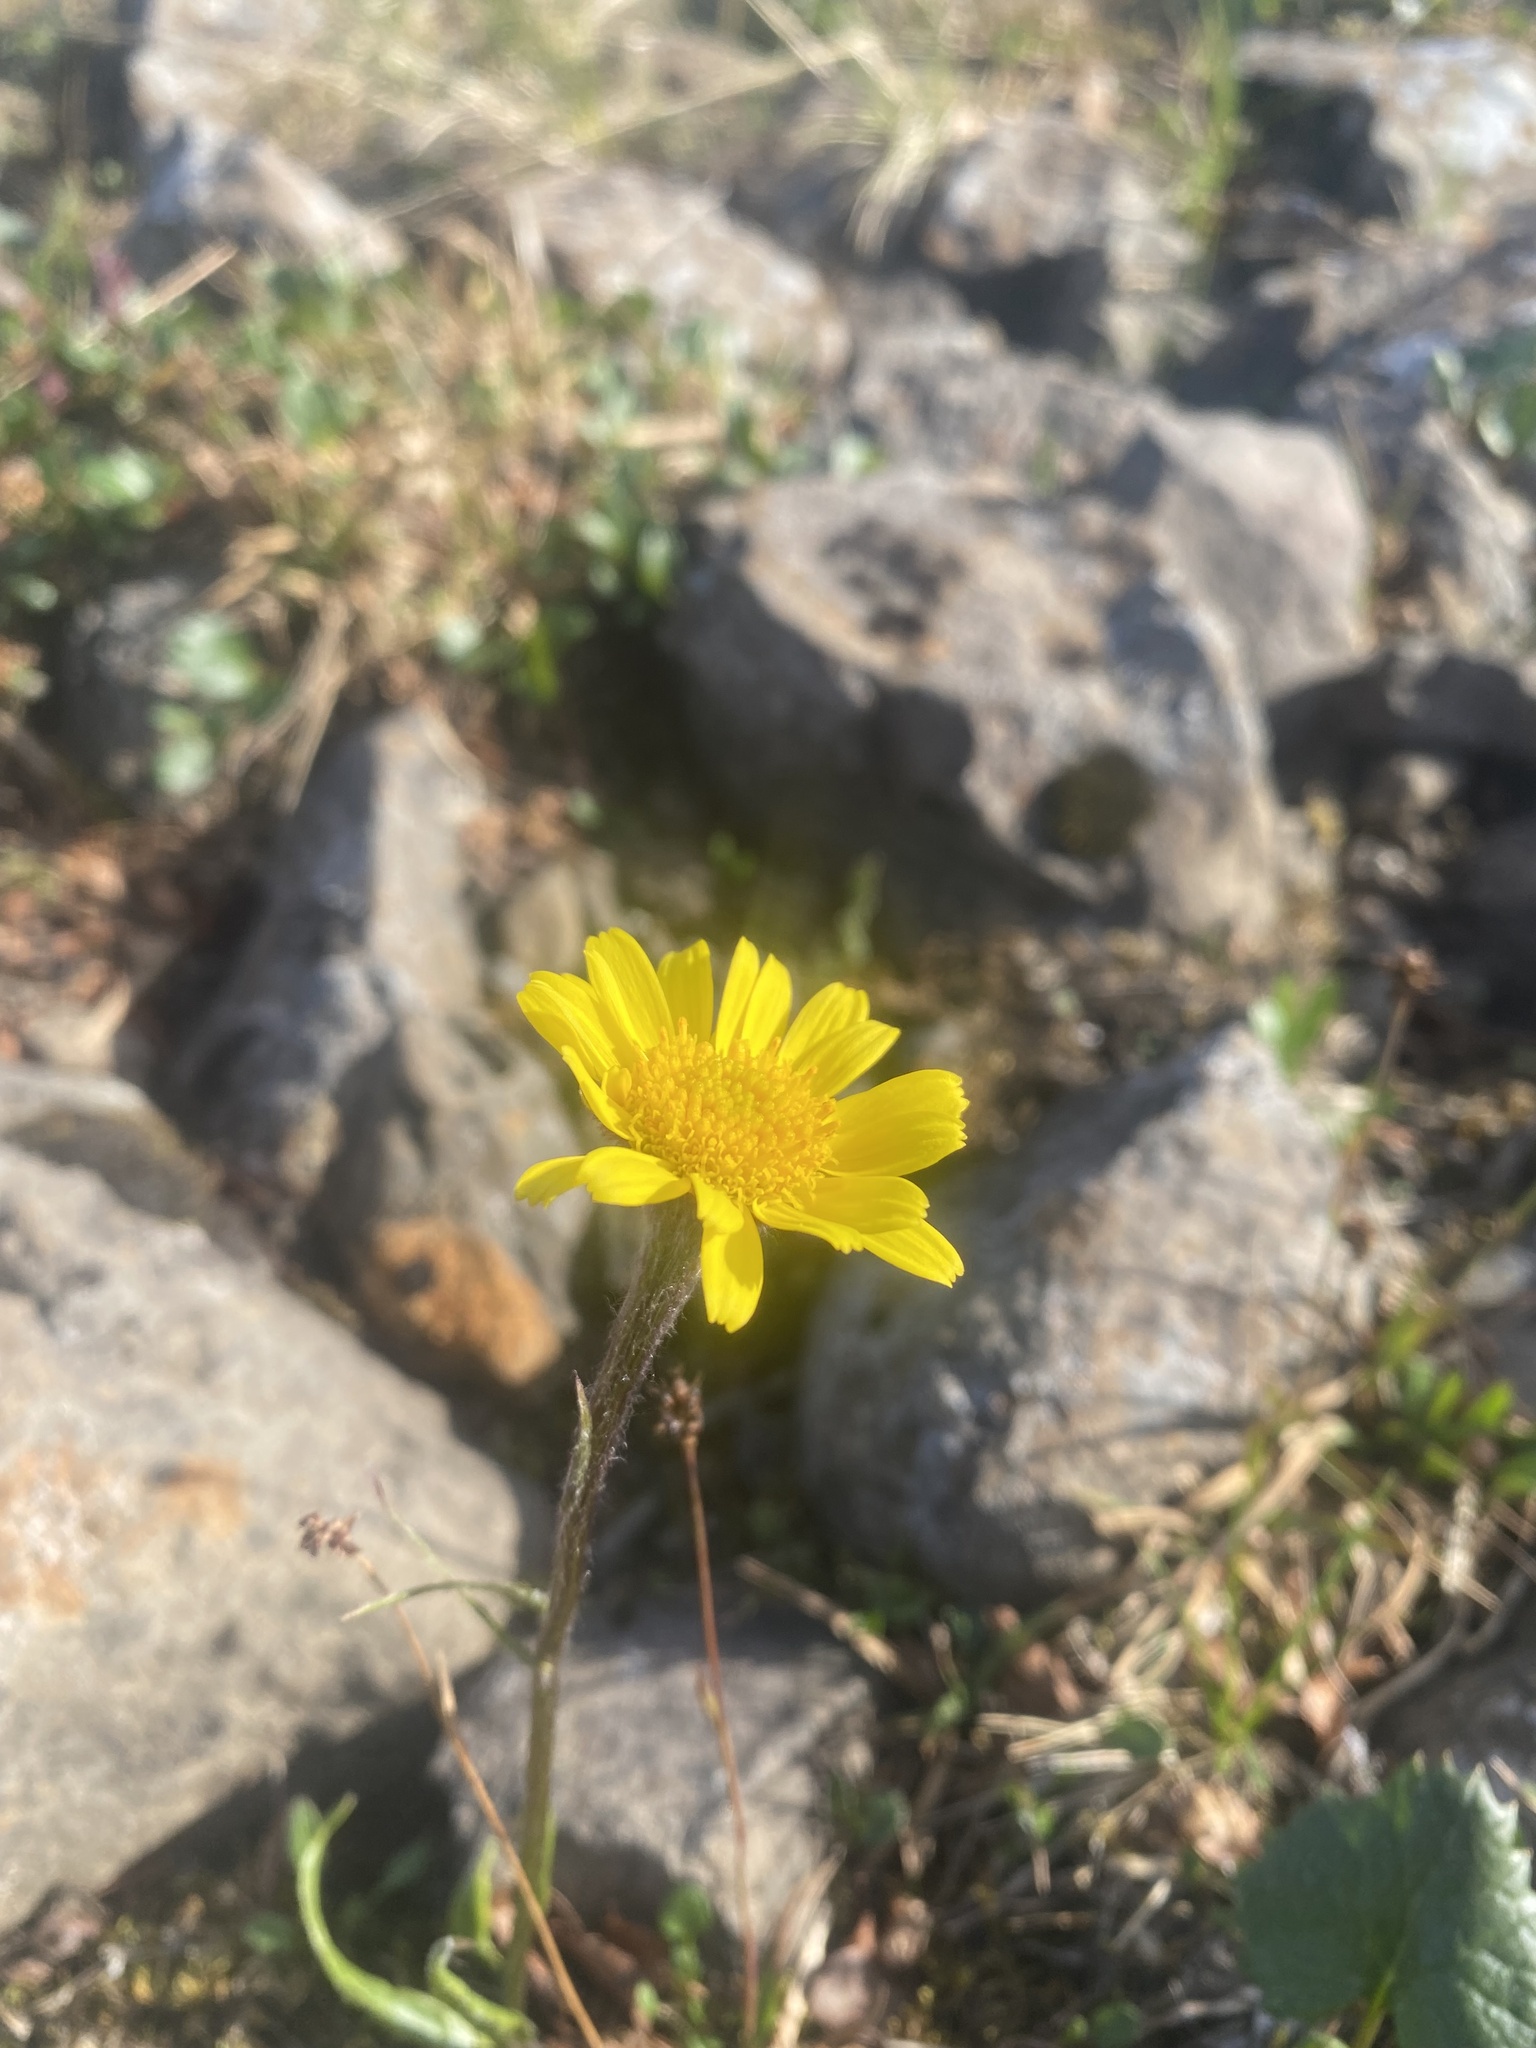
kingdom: Plantae
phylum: Tracheophyta
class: Magnoliopsida
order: Asterales
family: Asteraceae
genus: Tephroseris
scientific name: Tephroseris integrifolia
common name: Field fleawort
